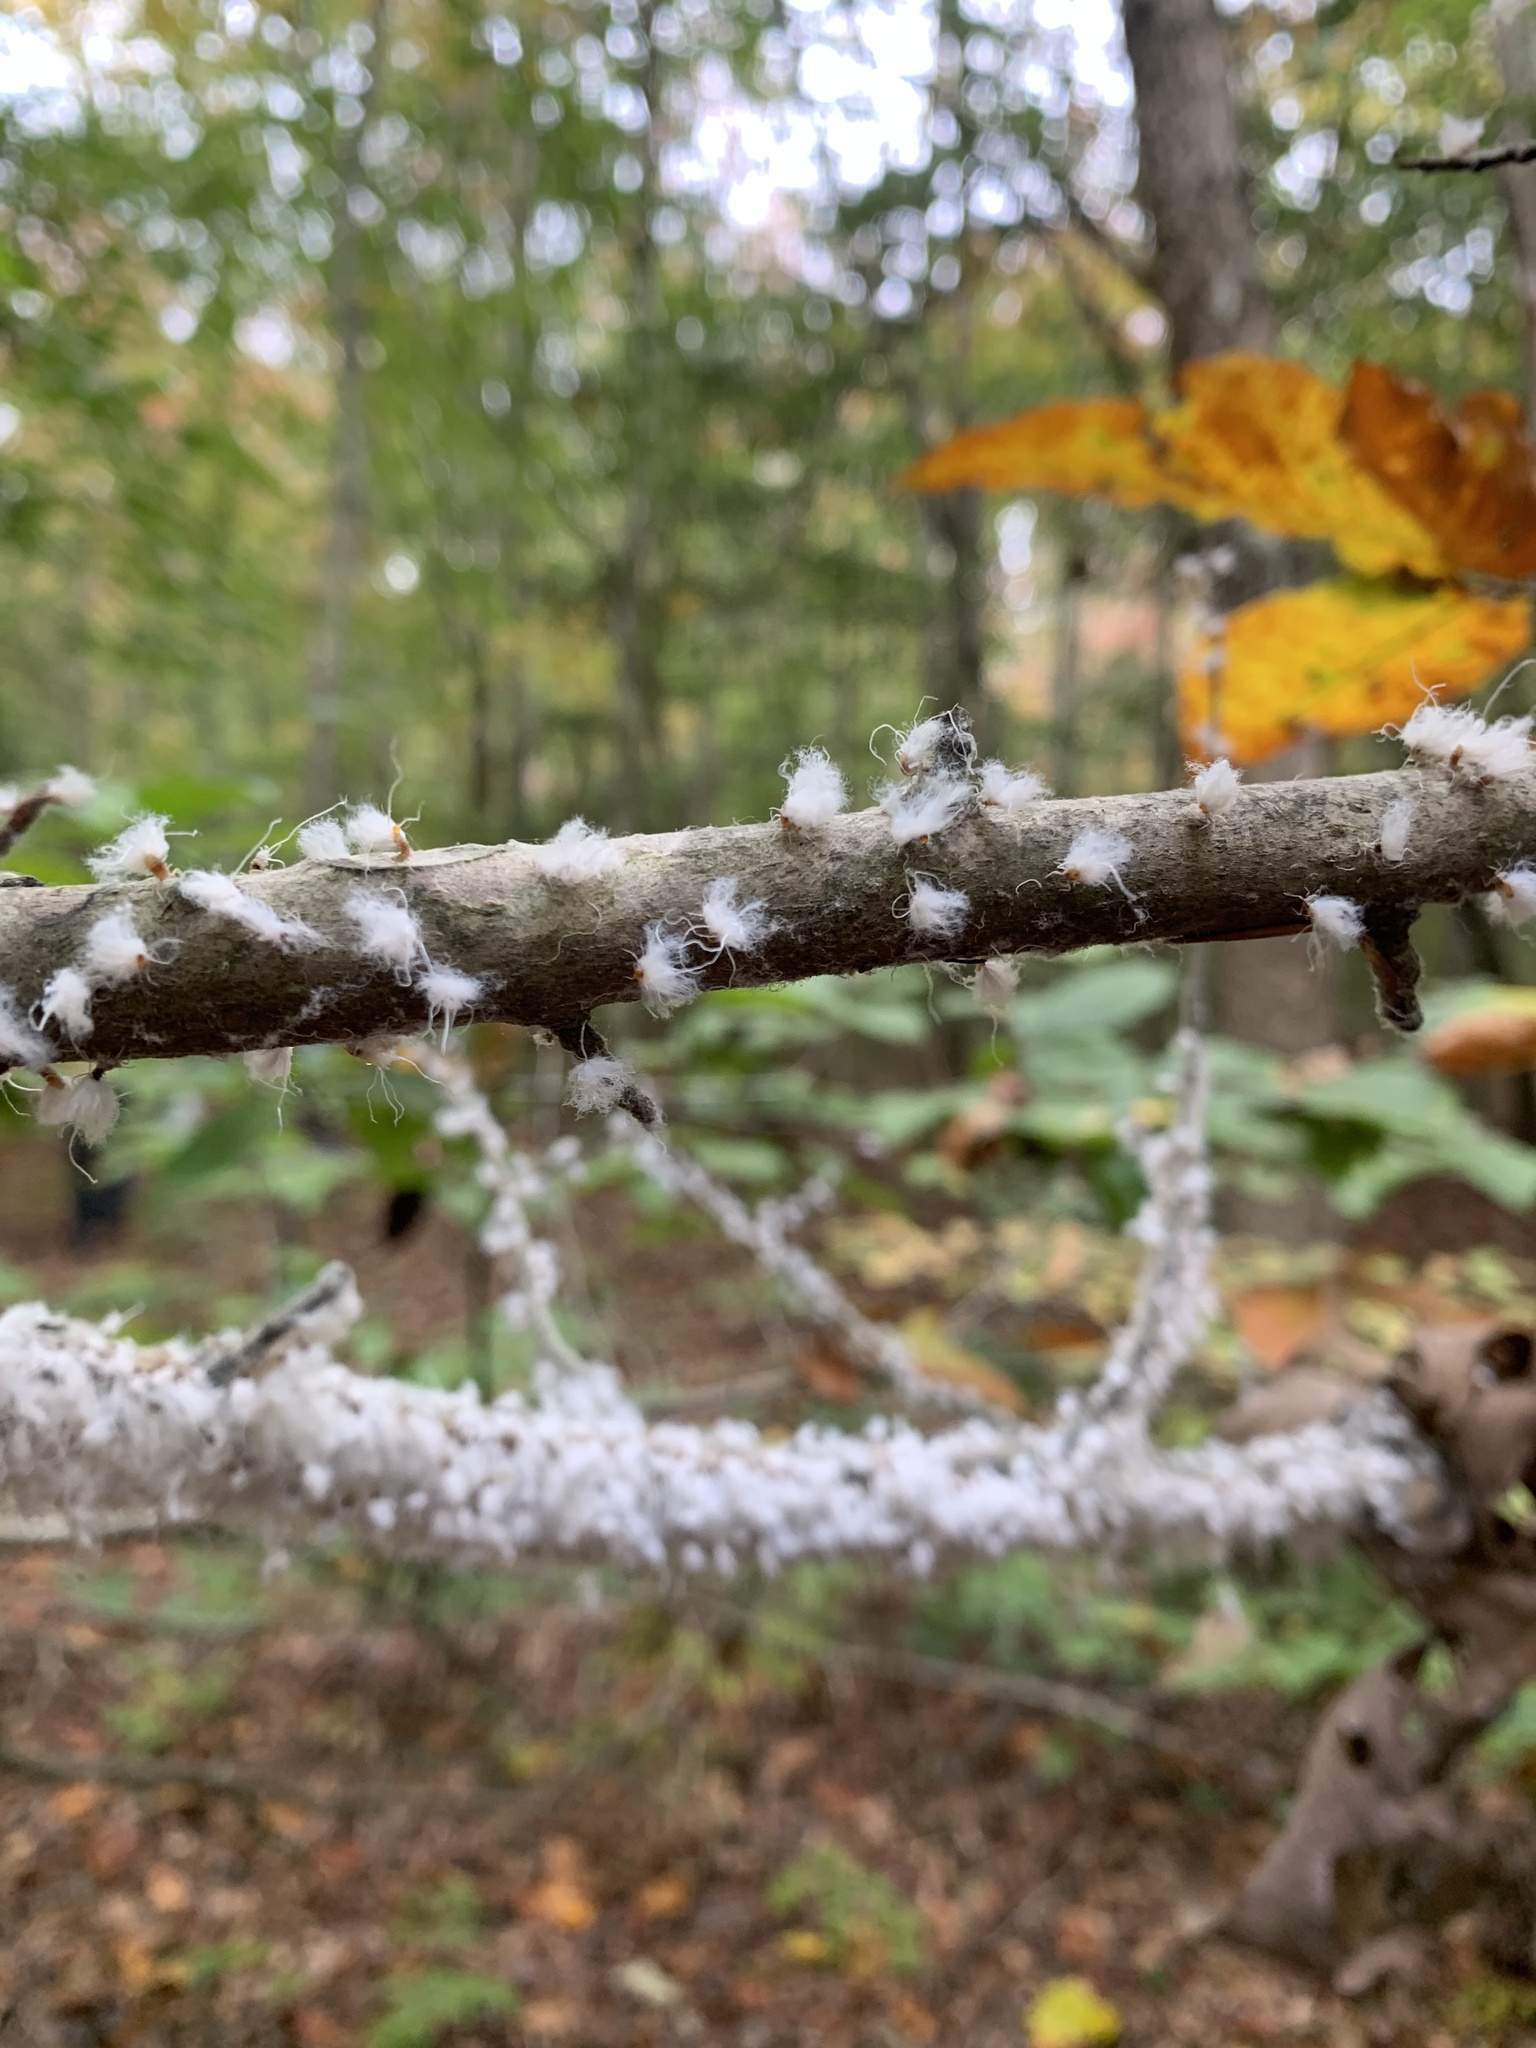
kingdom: Animalia
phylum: Arthropoda
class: Insecta
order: Hemiptera
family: Aphididae
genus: Grylloprociphilus
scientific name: Grylloprociphilus imbricator
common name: Beech blight aphid
